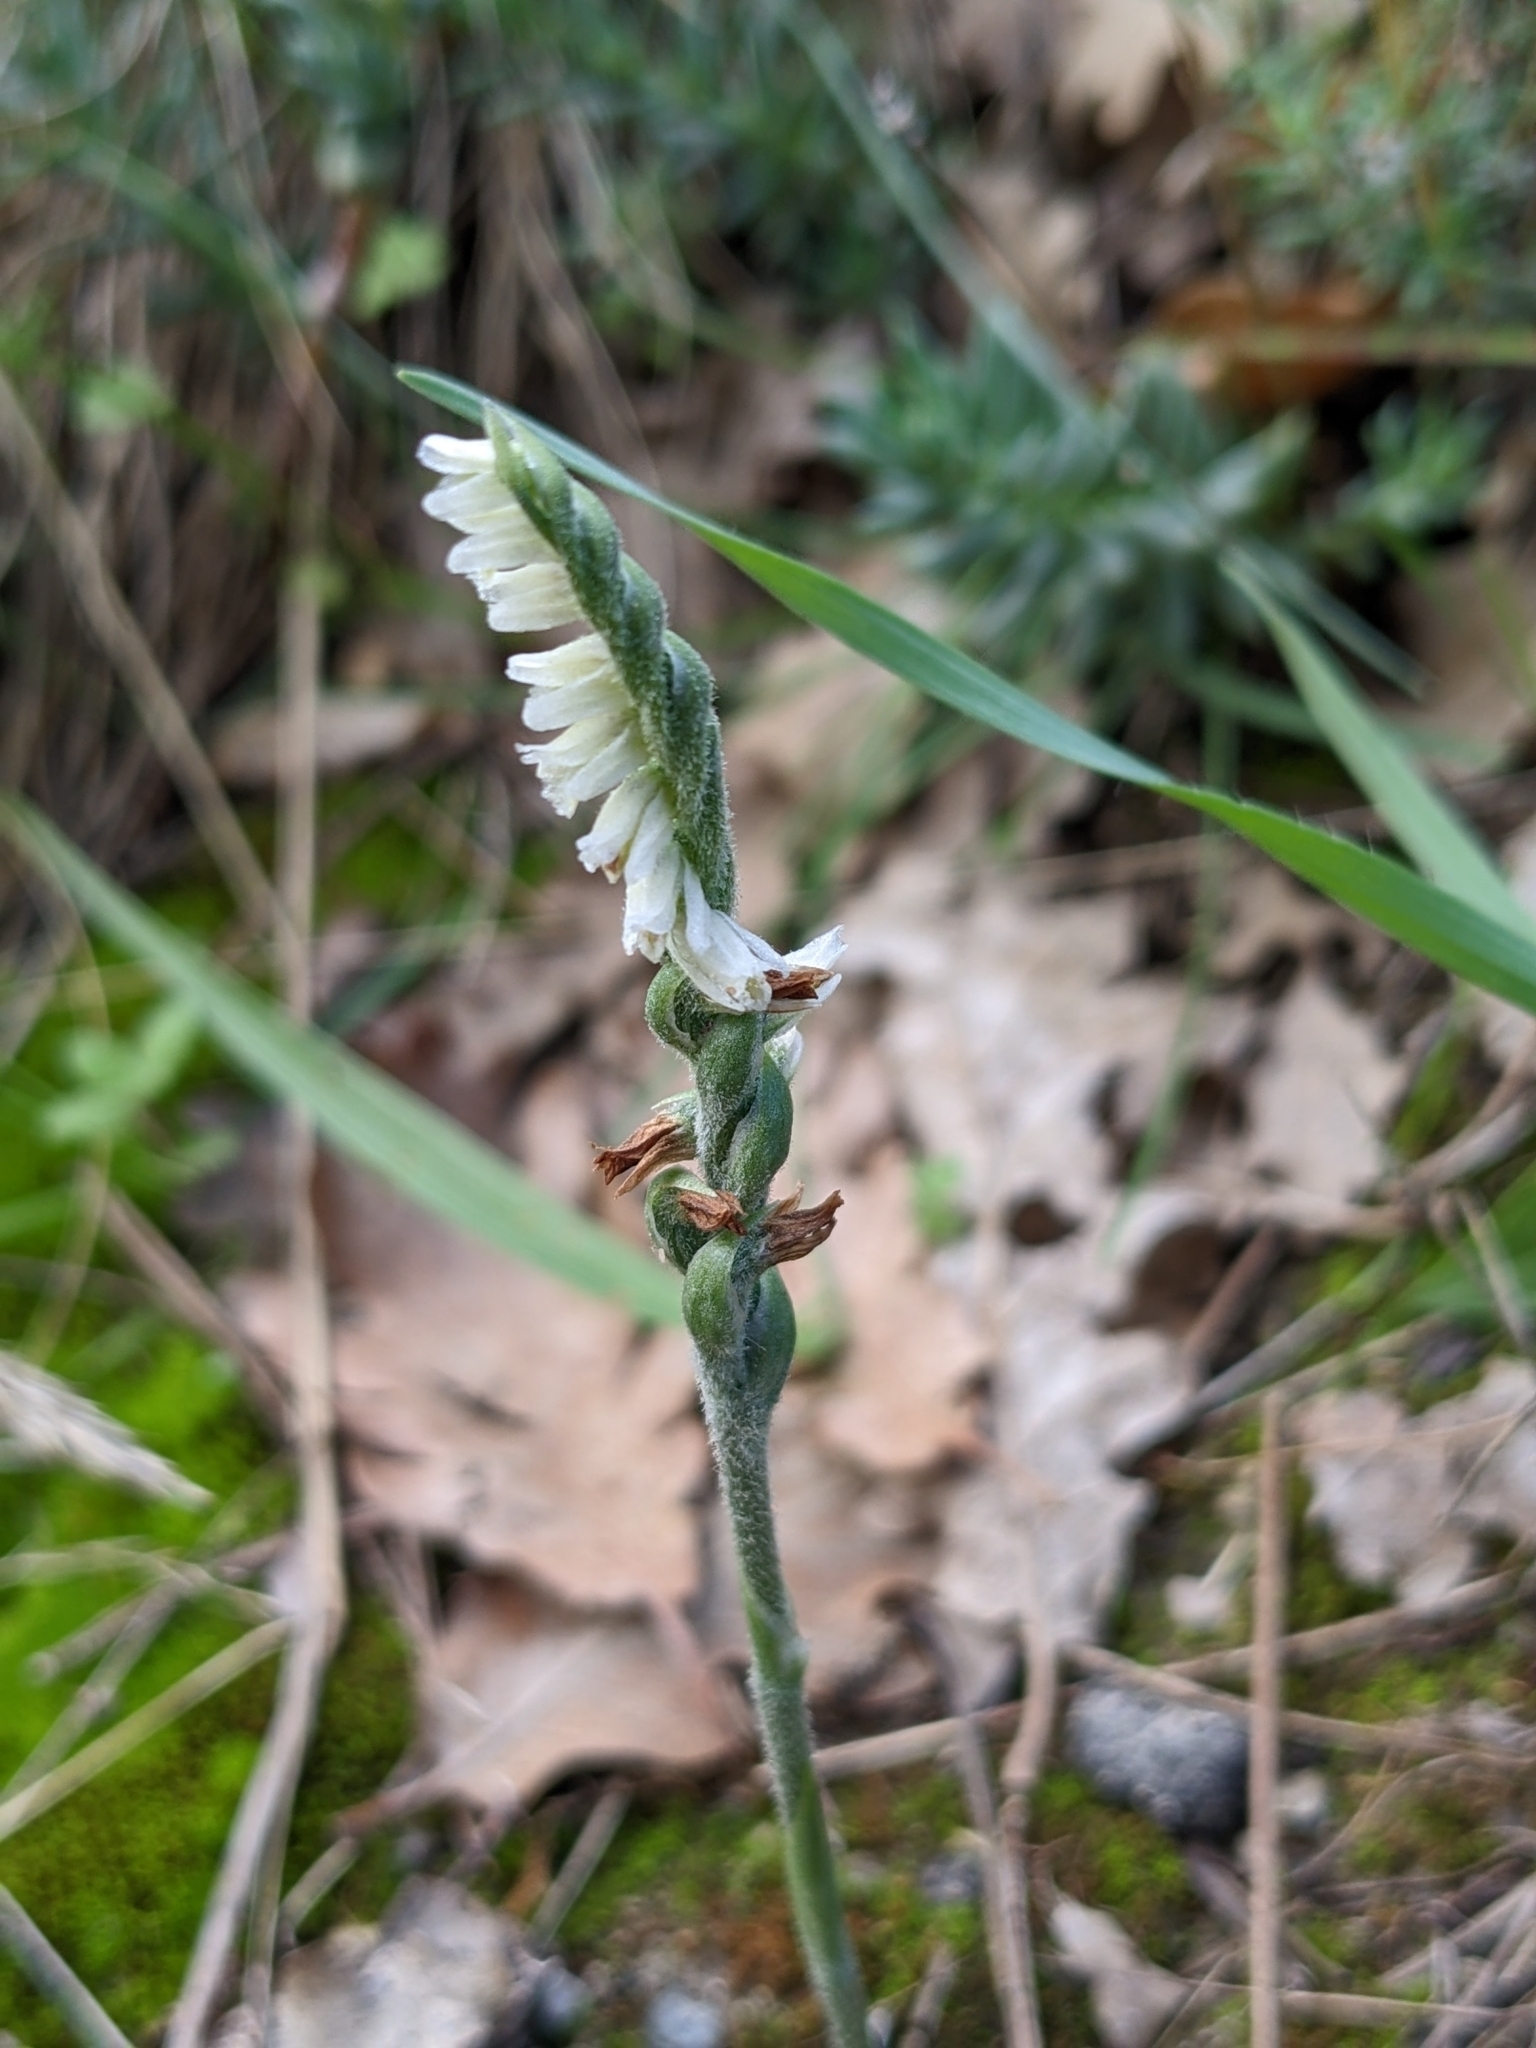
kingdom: Plantae
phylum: Tracheophyta
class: Liliopsida
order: Asparagales
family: Orchidaceae
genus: Spiranthes
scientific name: Spiranthes spiralis
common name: Autumn lady's-tresses
